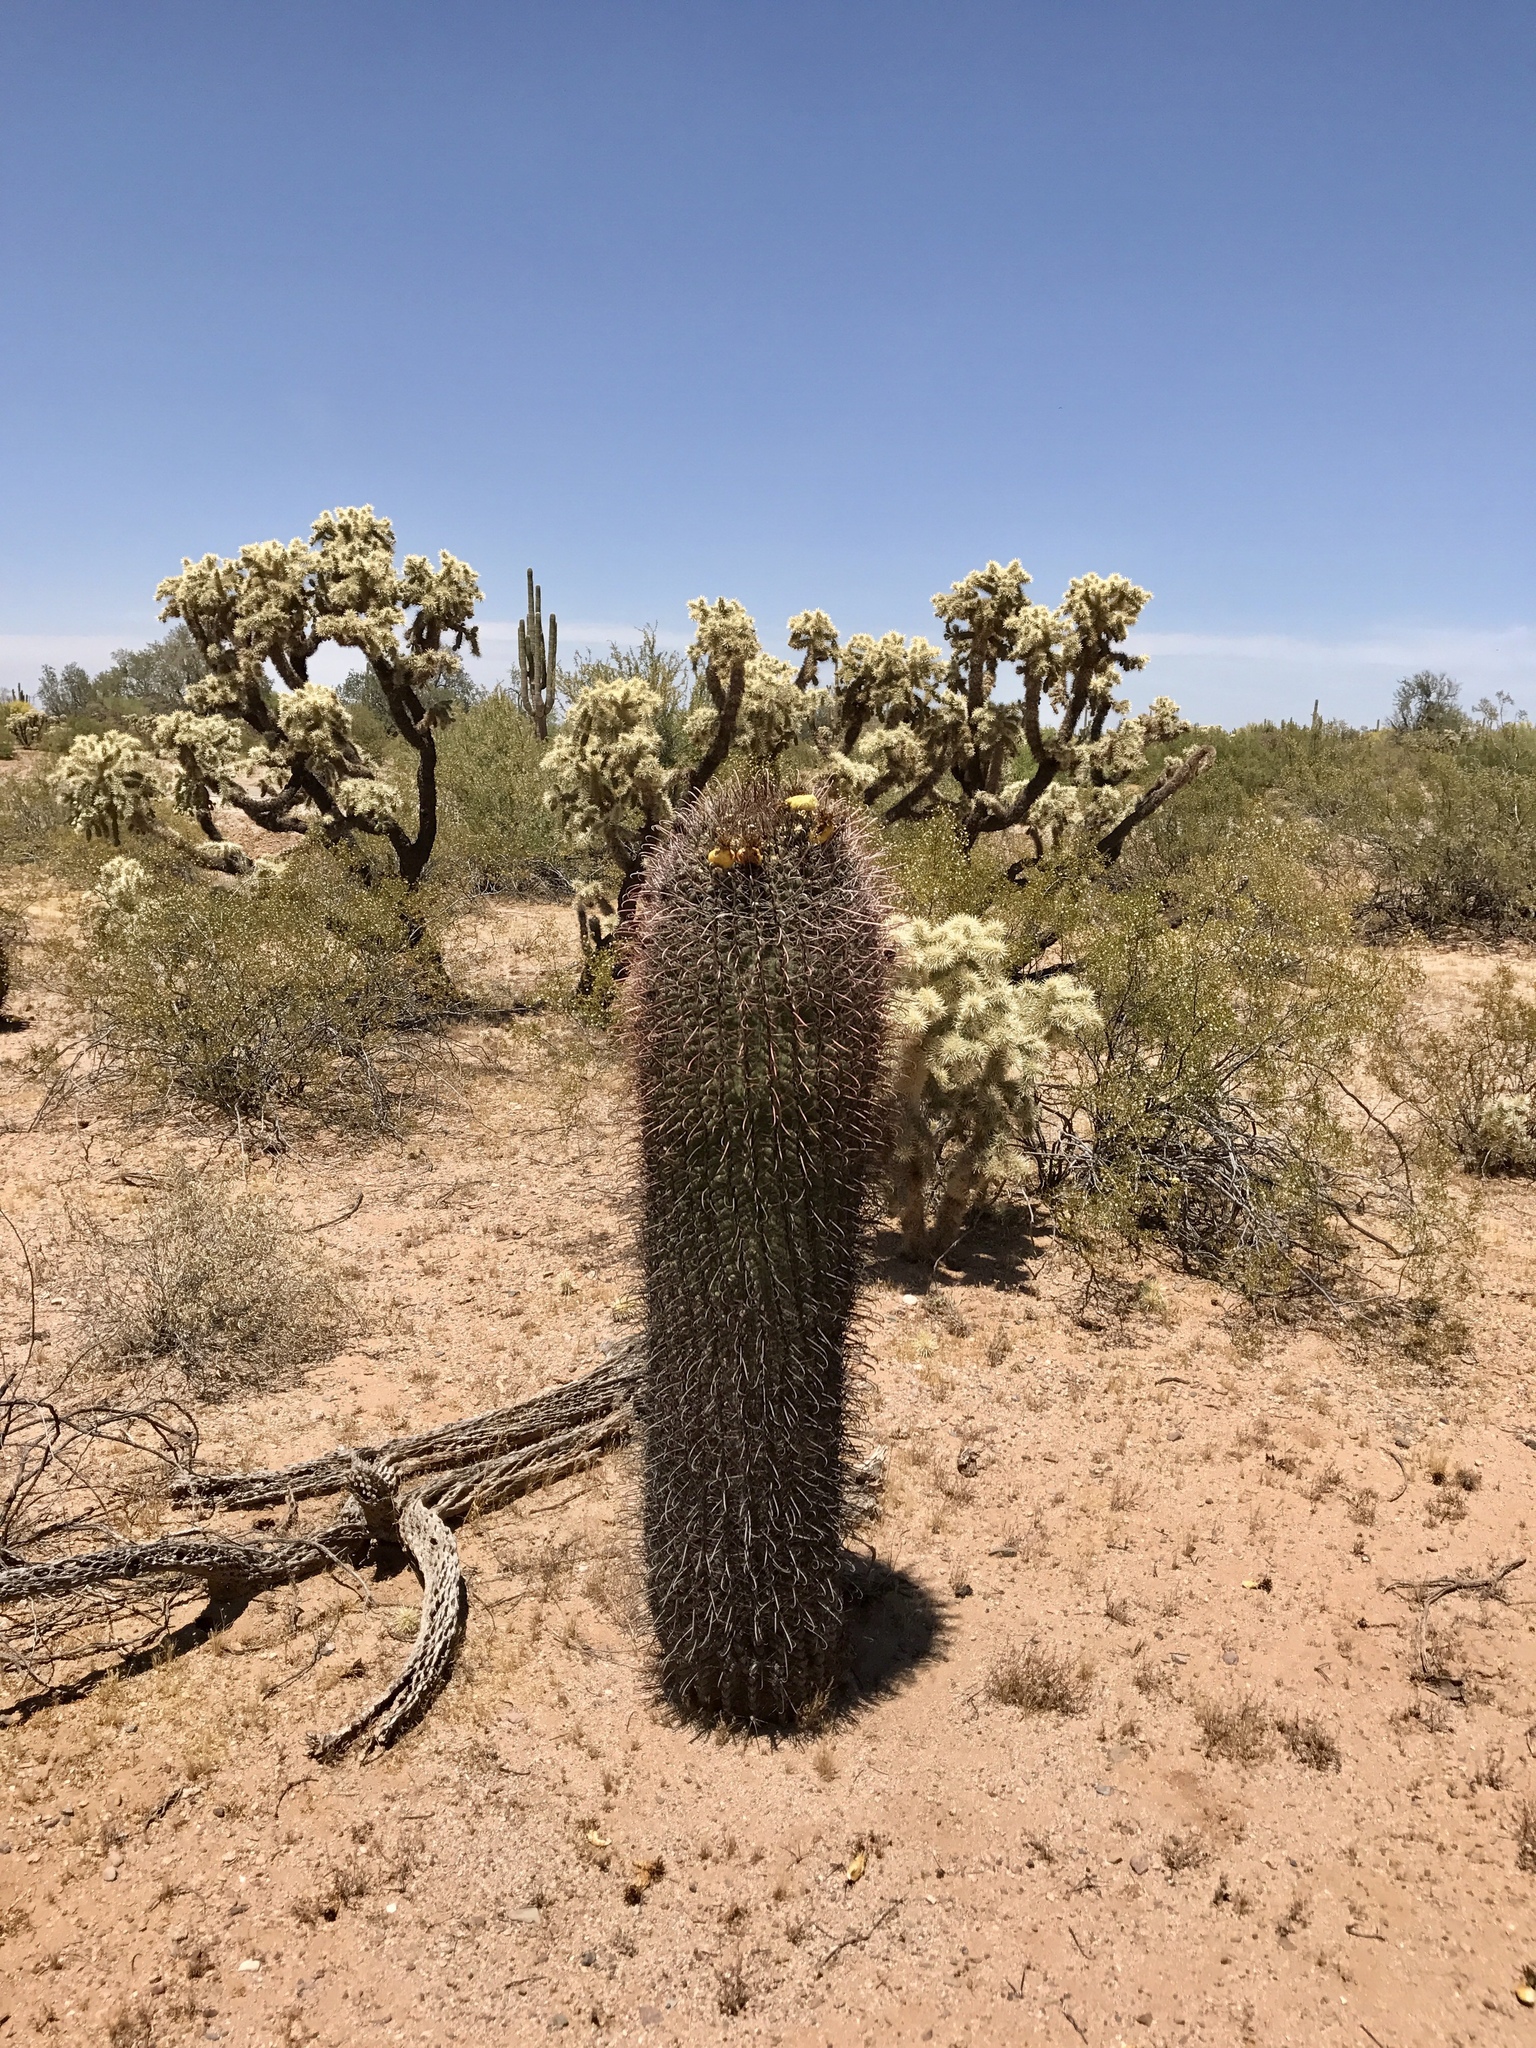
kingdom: Plantae
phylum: Tracheophyta
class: Magnoliopsida
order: Caryophyllales
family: Cactaceae
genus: Ferocactus
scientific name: Ferocactus wislizeni
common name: Candy barrel cactus
